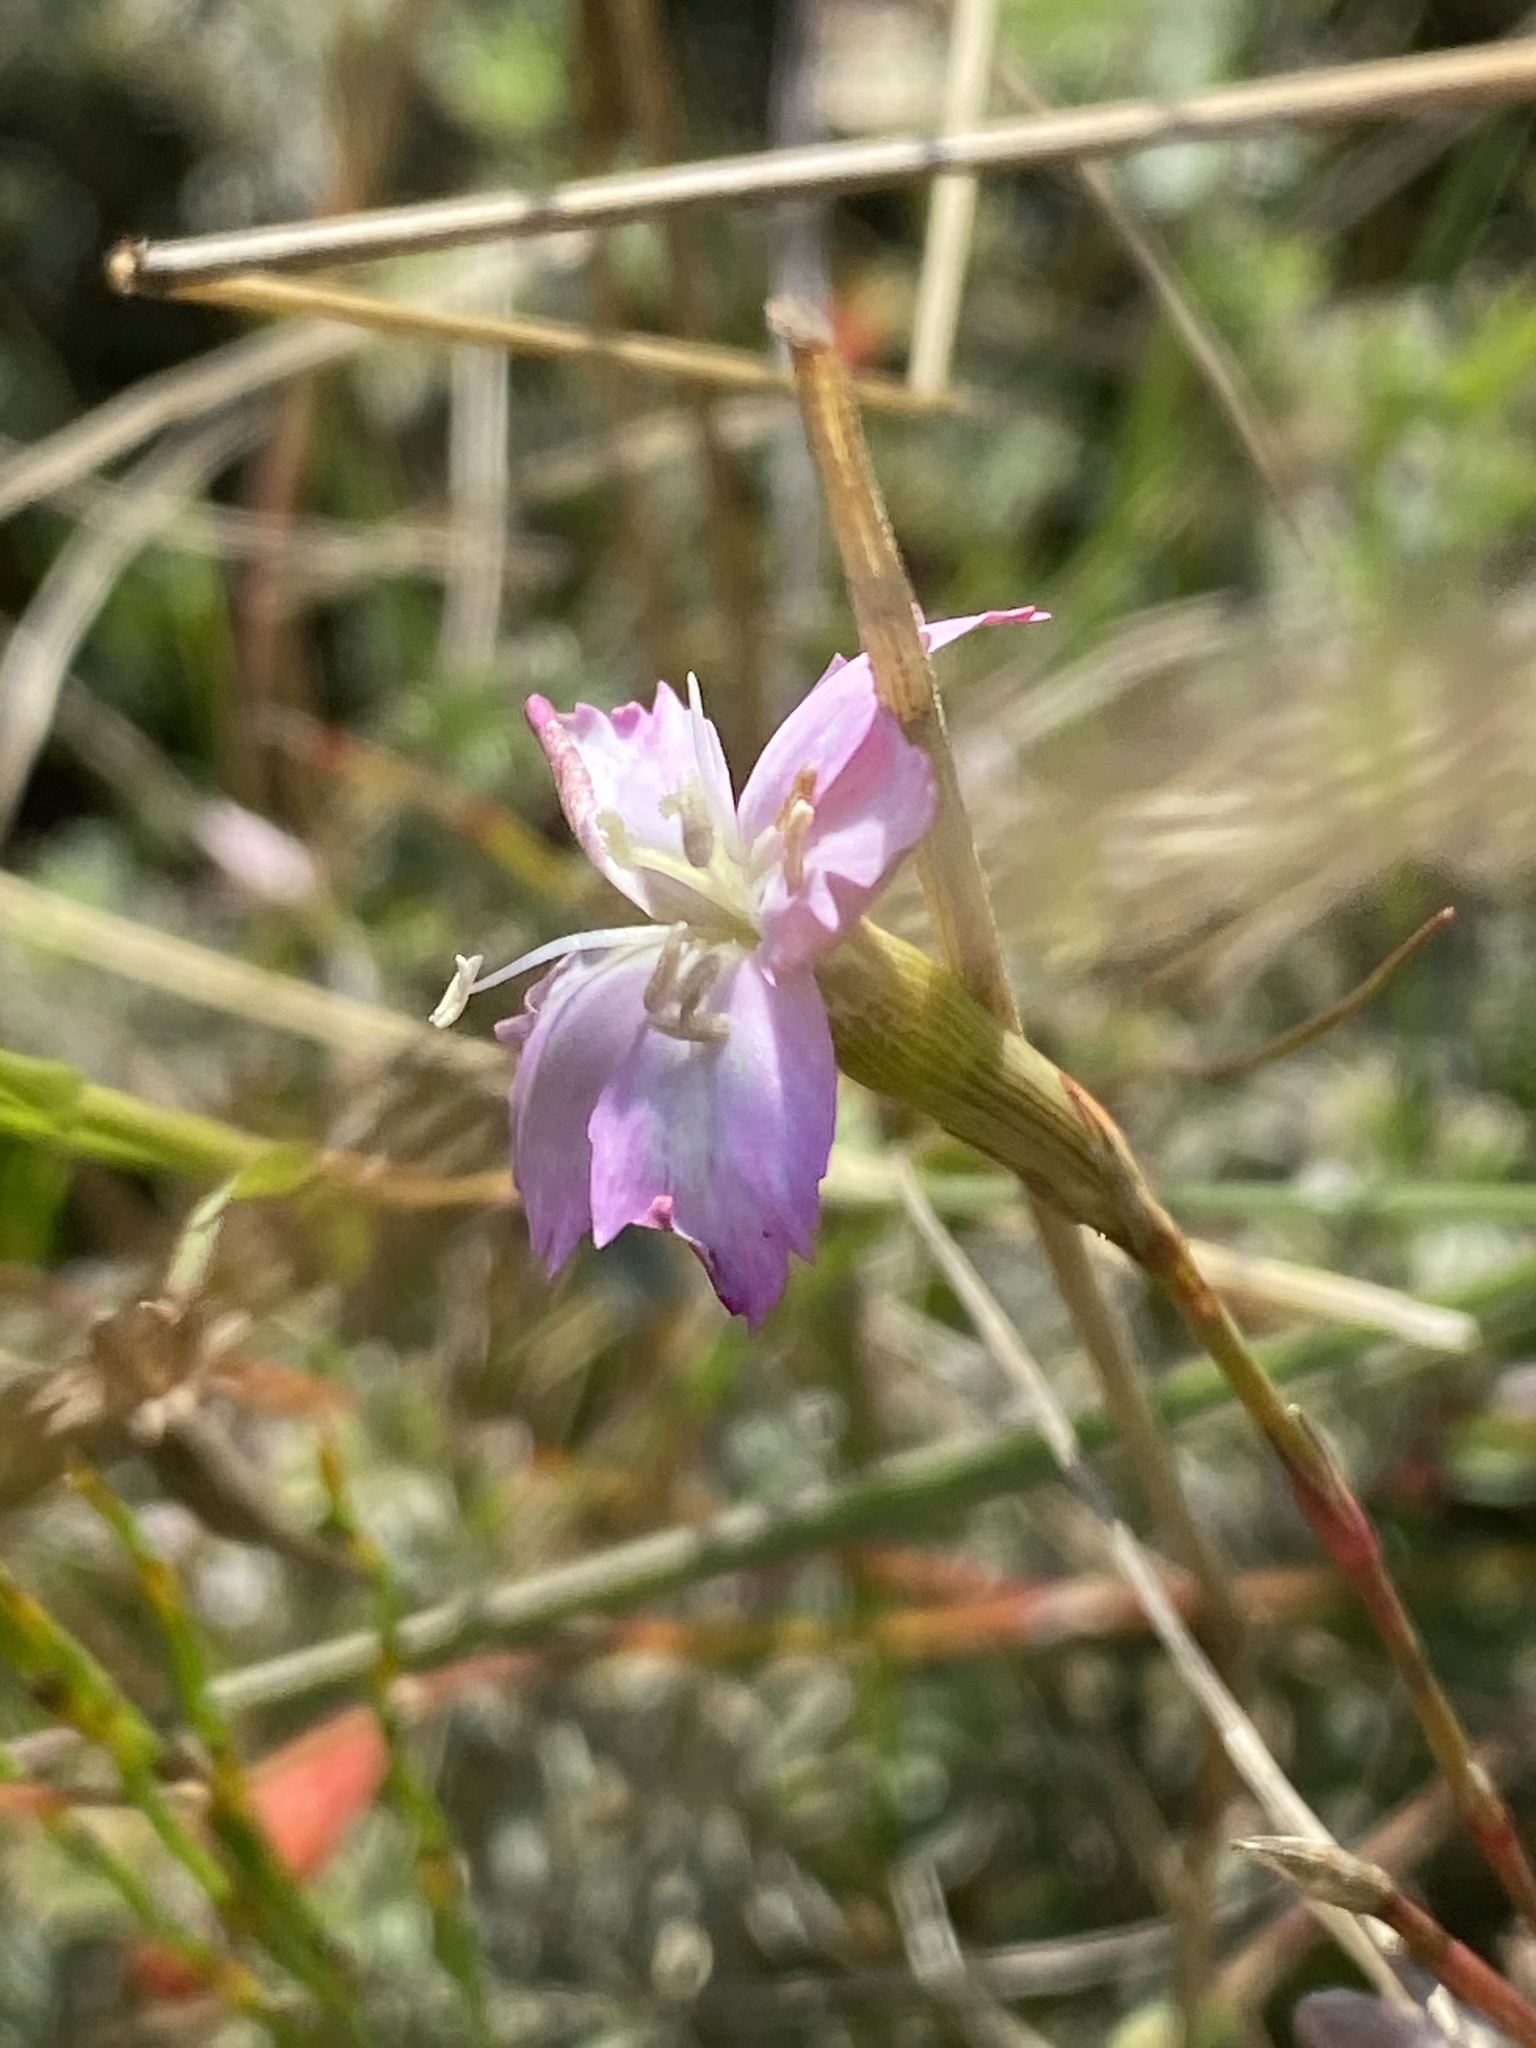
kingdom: Plantae
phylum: Tracheophyta
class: Magnoliopsida
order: Caryophyllales
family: Caryophyllaceae
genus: Dianthus
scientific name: Dianthus albens
